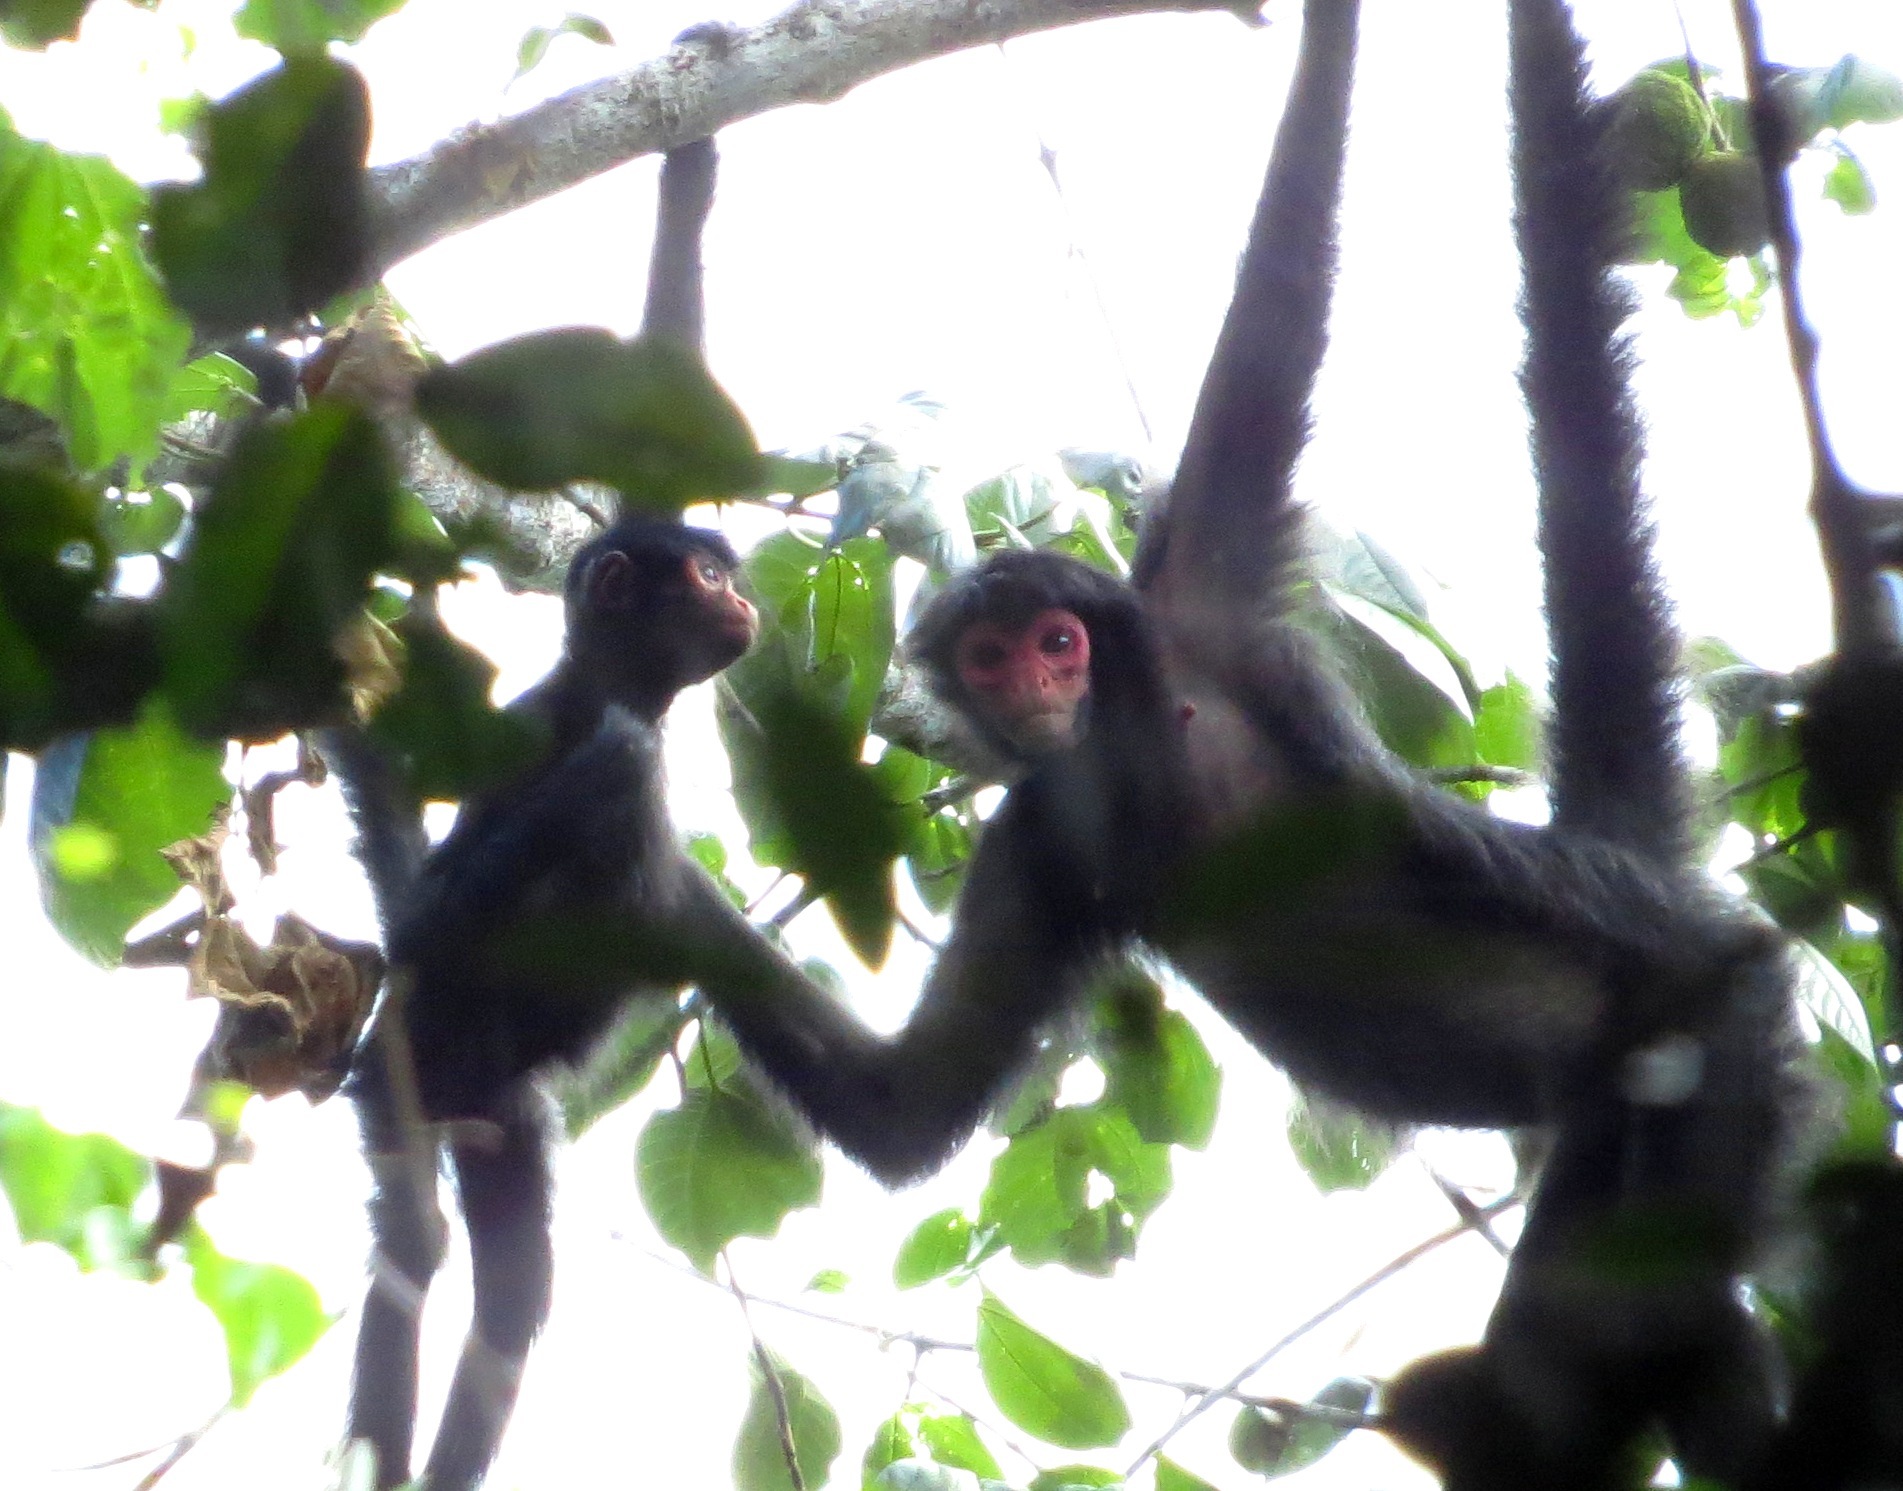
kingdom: Animalia
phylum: Chordata
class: Mammalia
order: Primates
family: Atelidae
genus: Ateles
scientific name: Ateles paniscus
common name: Red-faced spider monkey
